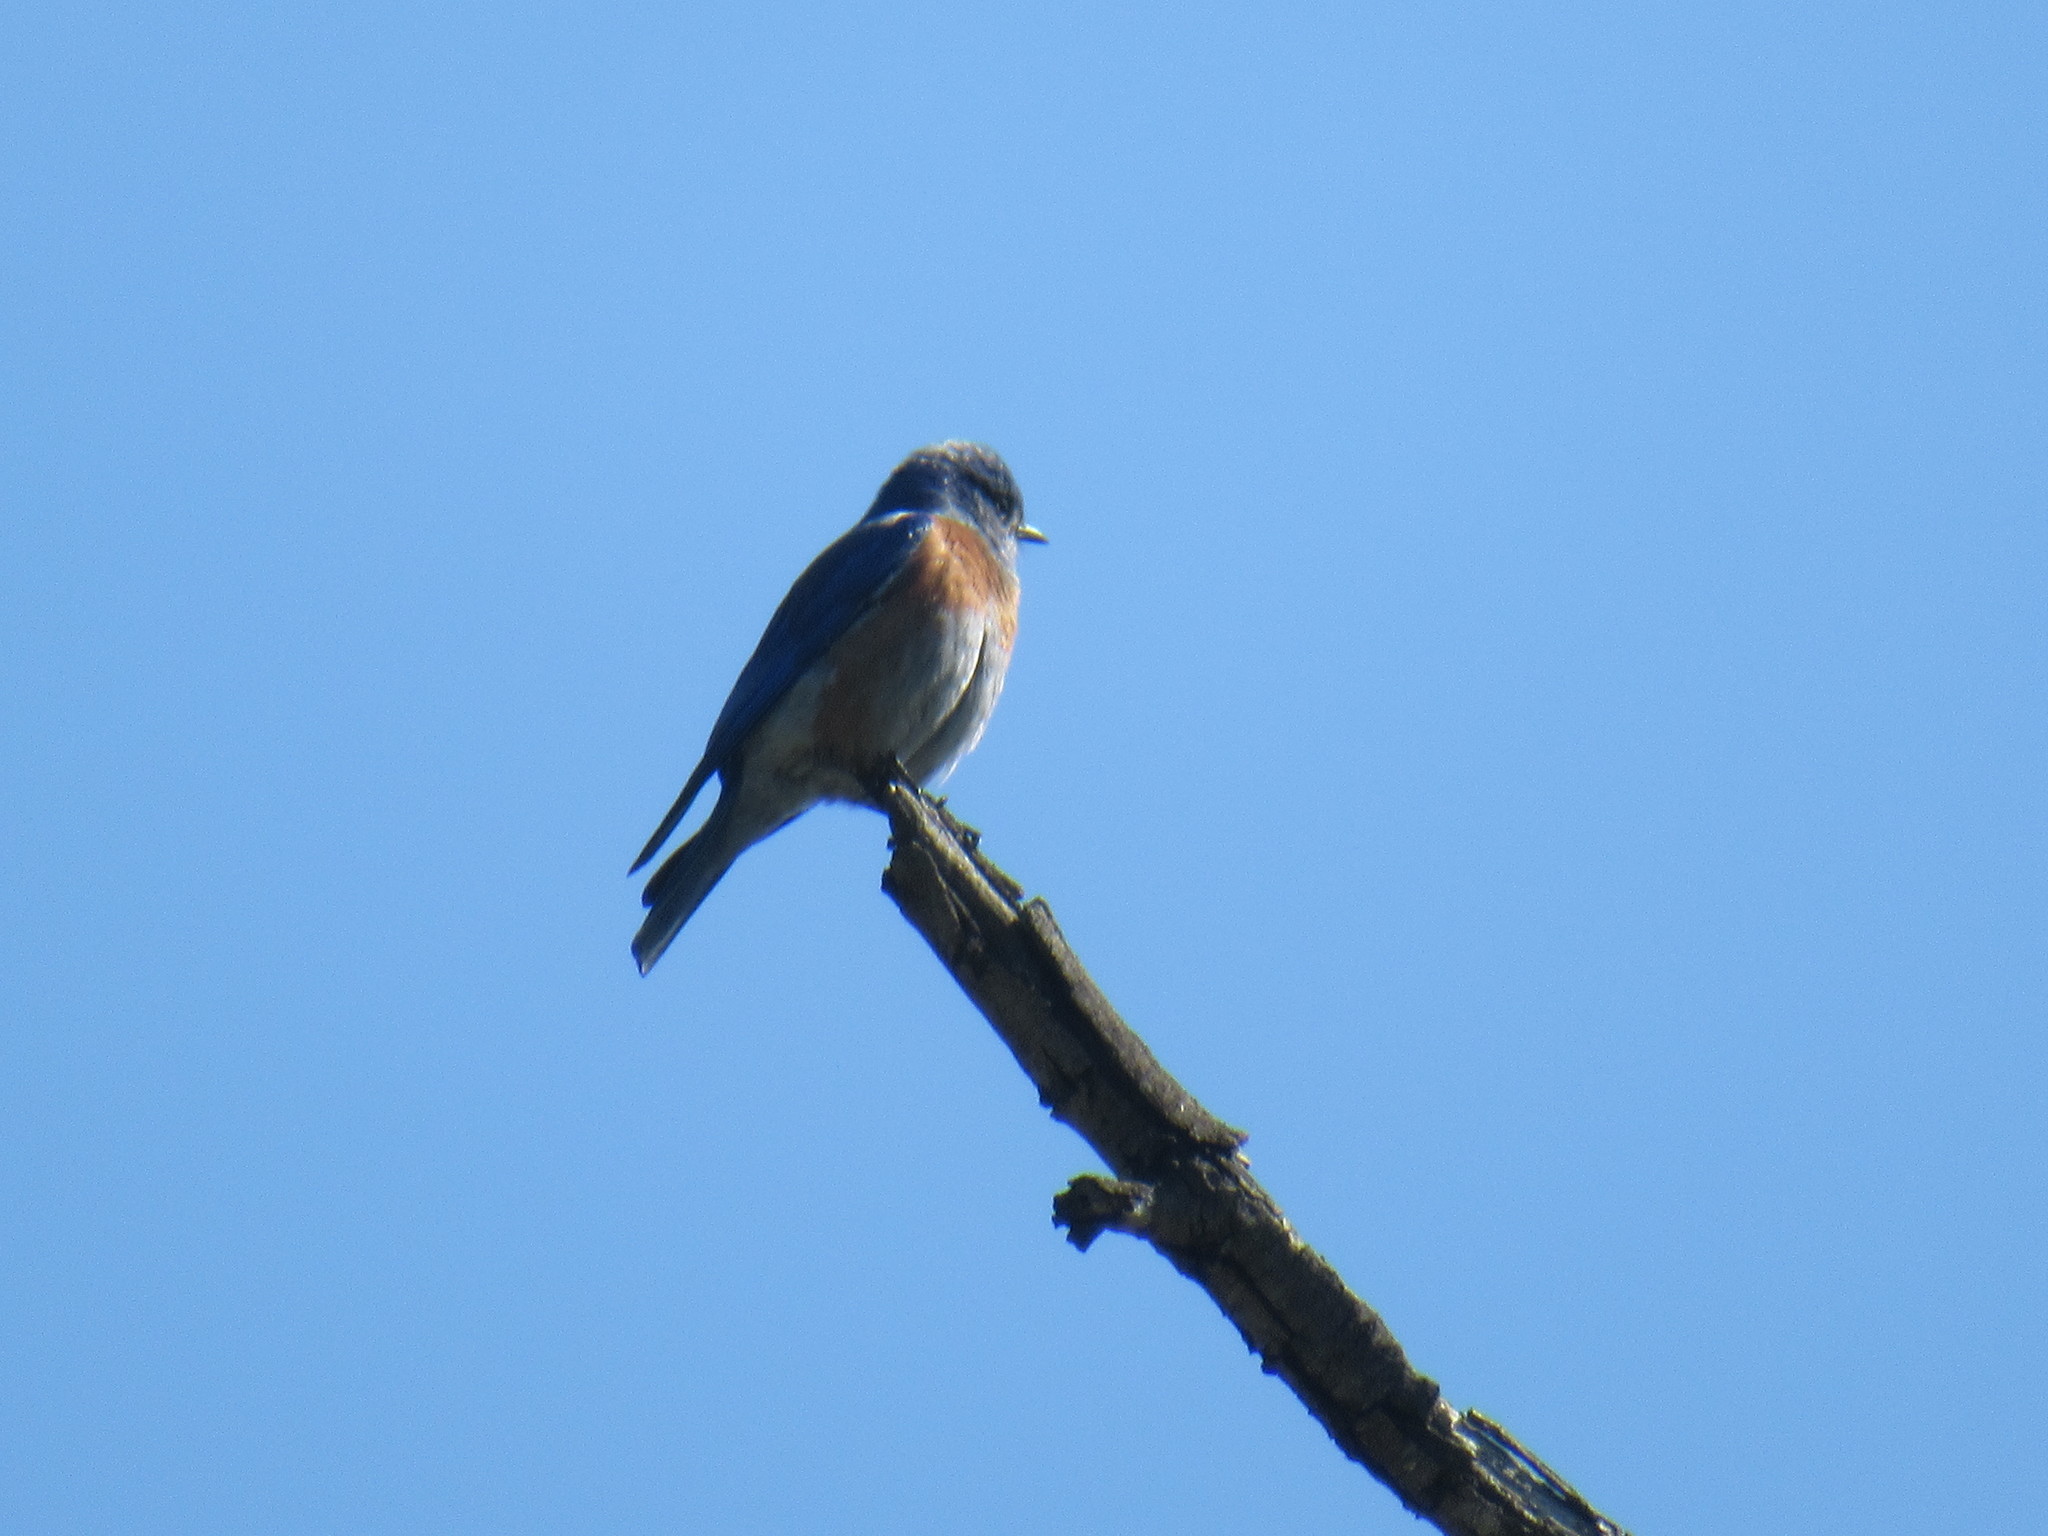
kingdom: Animalia
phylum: Chordata
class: Aves
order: Passeriformes
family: Turdidae
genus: Sialia
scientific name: Sialia mexicana
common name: Western bluebird
